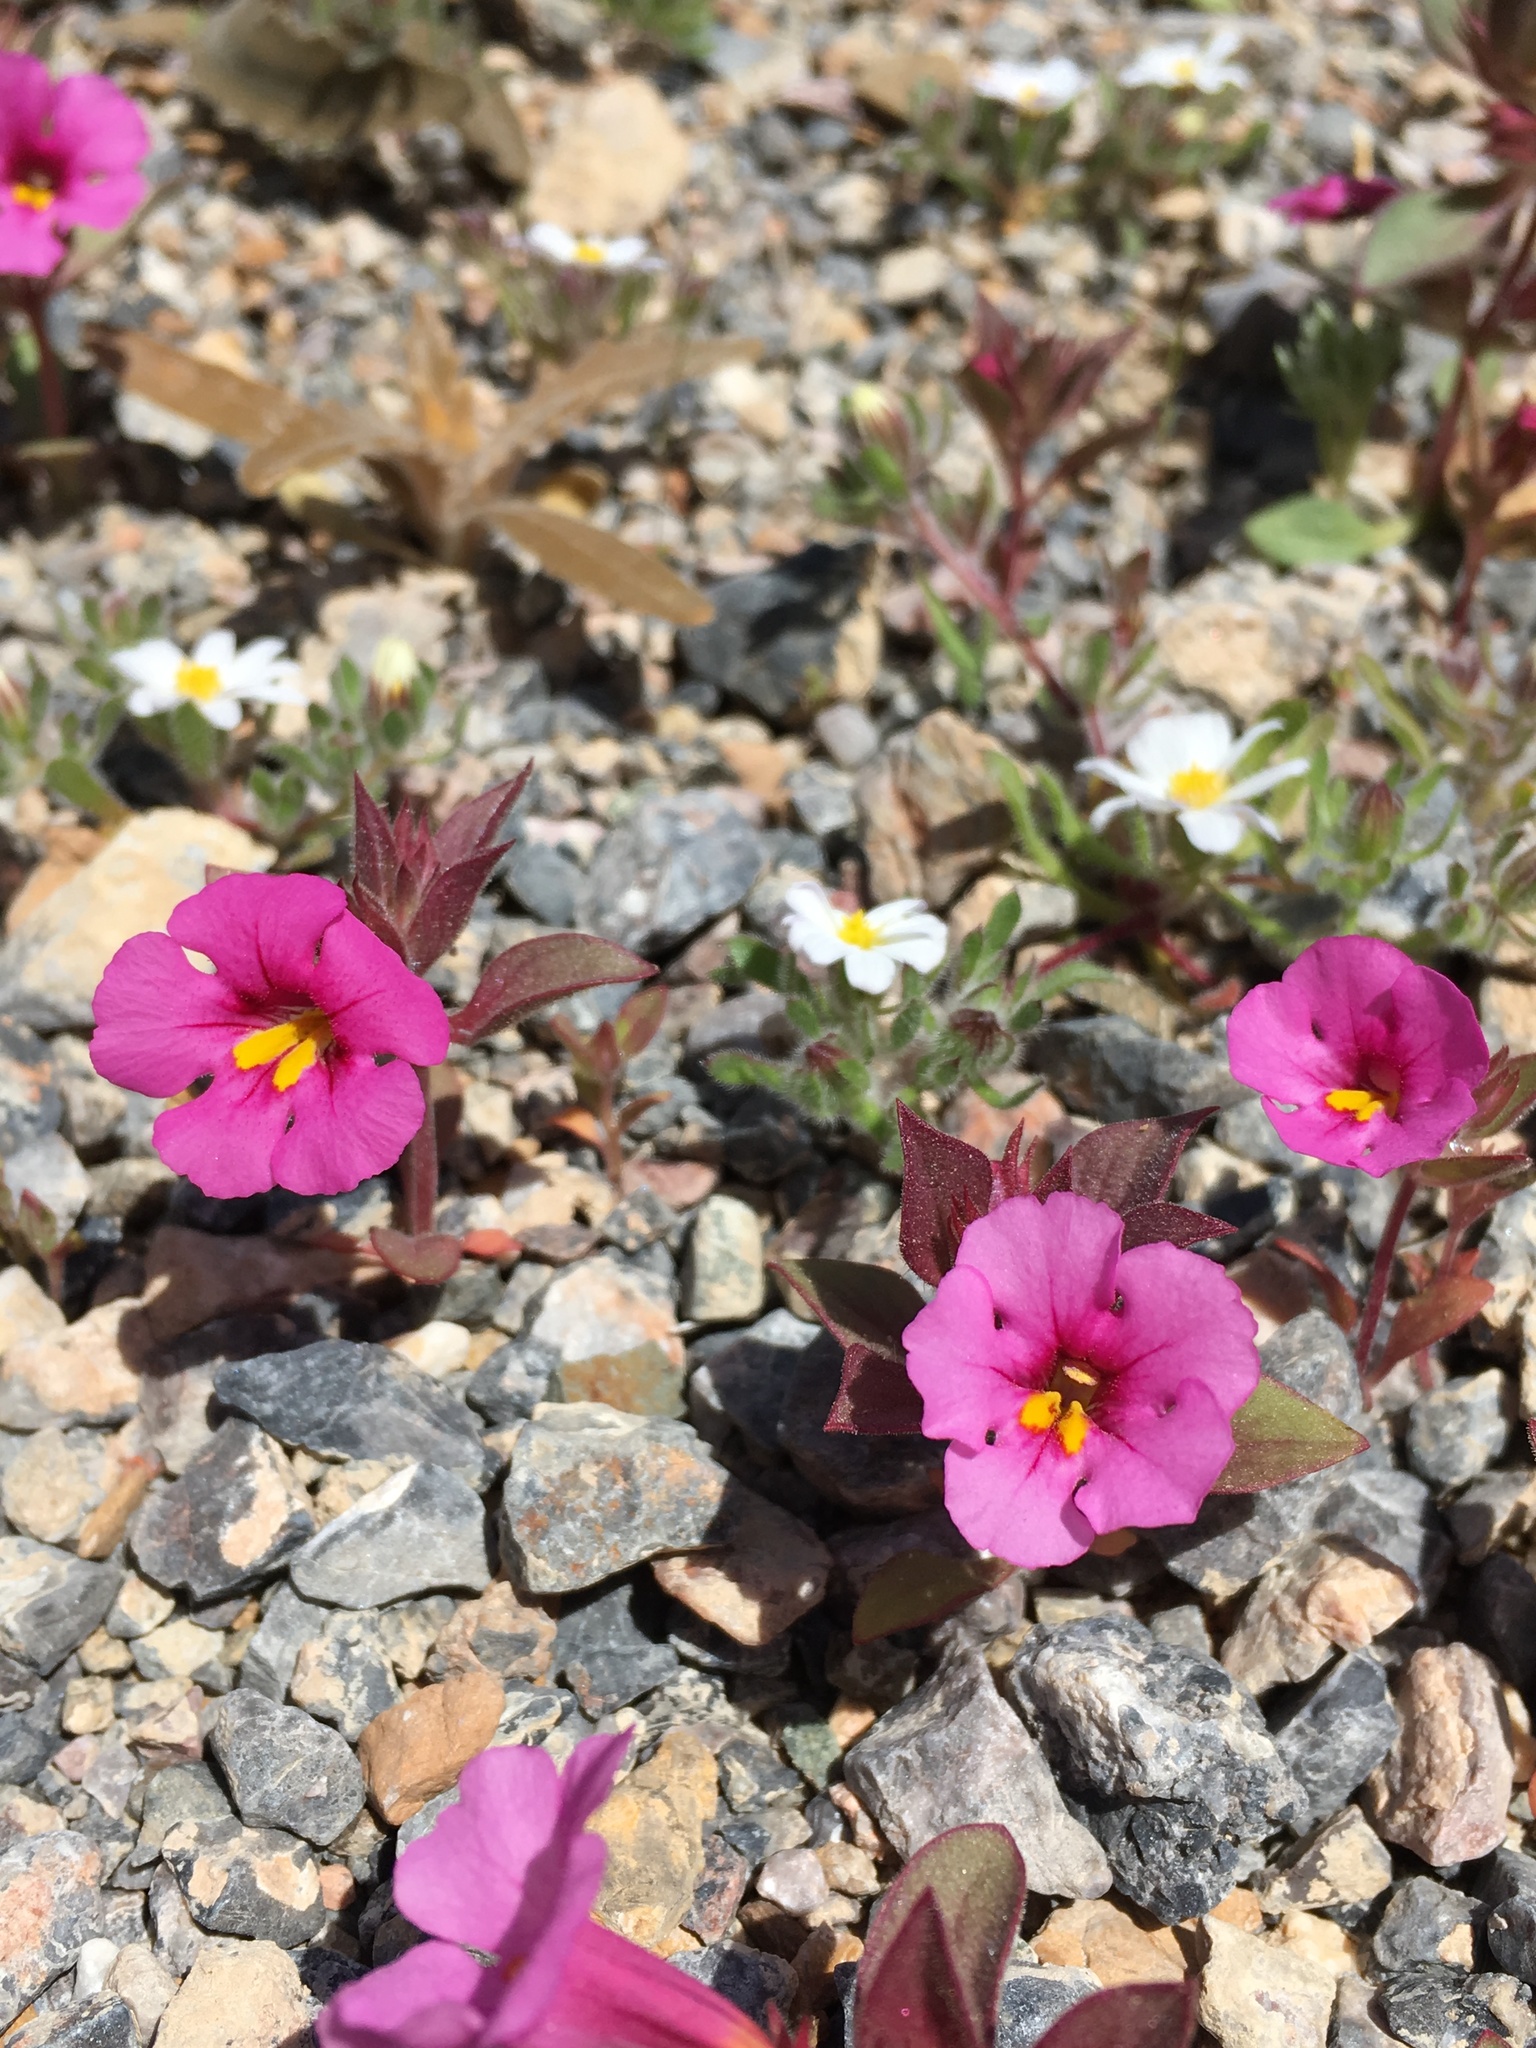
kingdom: Plantae
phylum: Tracheophyta
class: Magnoliopsida
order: Lamiales
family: Phrymaceae
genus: Diplacus
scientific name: Diplacus bigelovii
